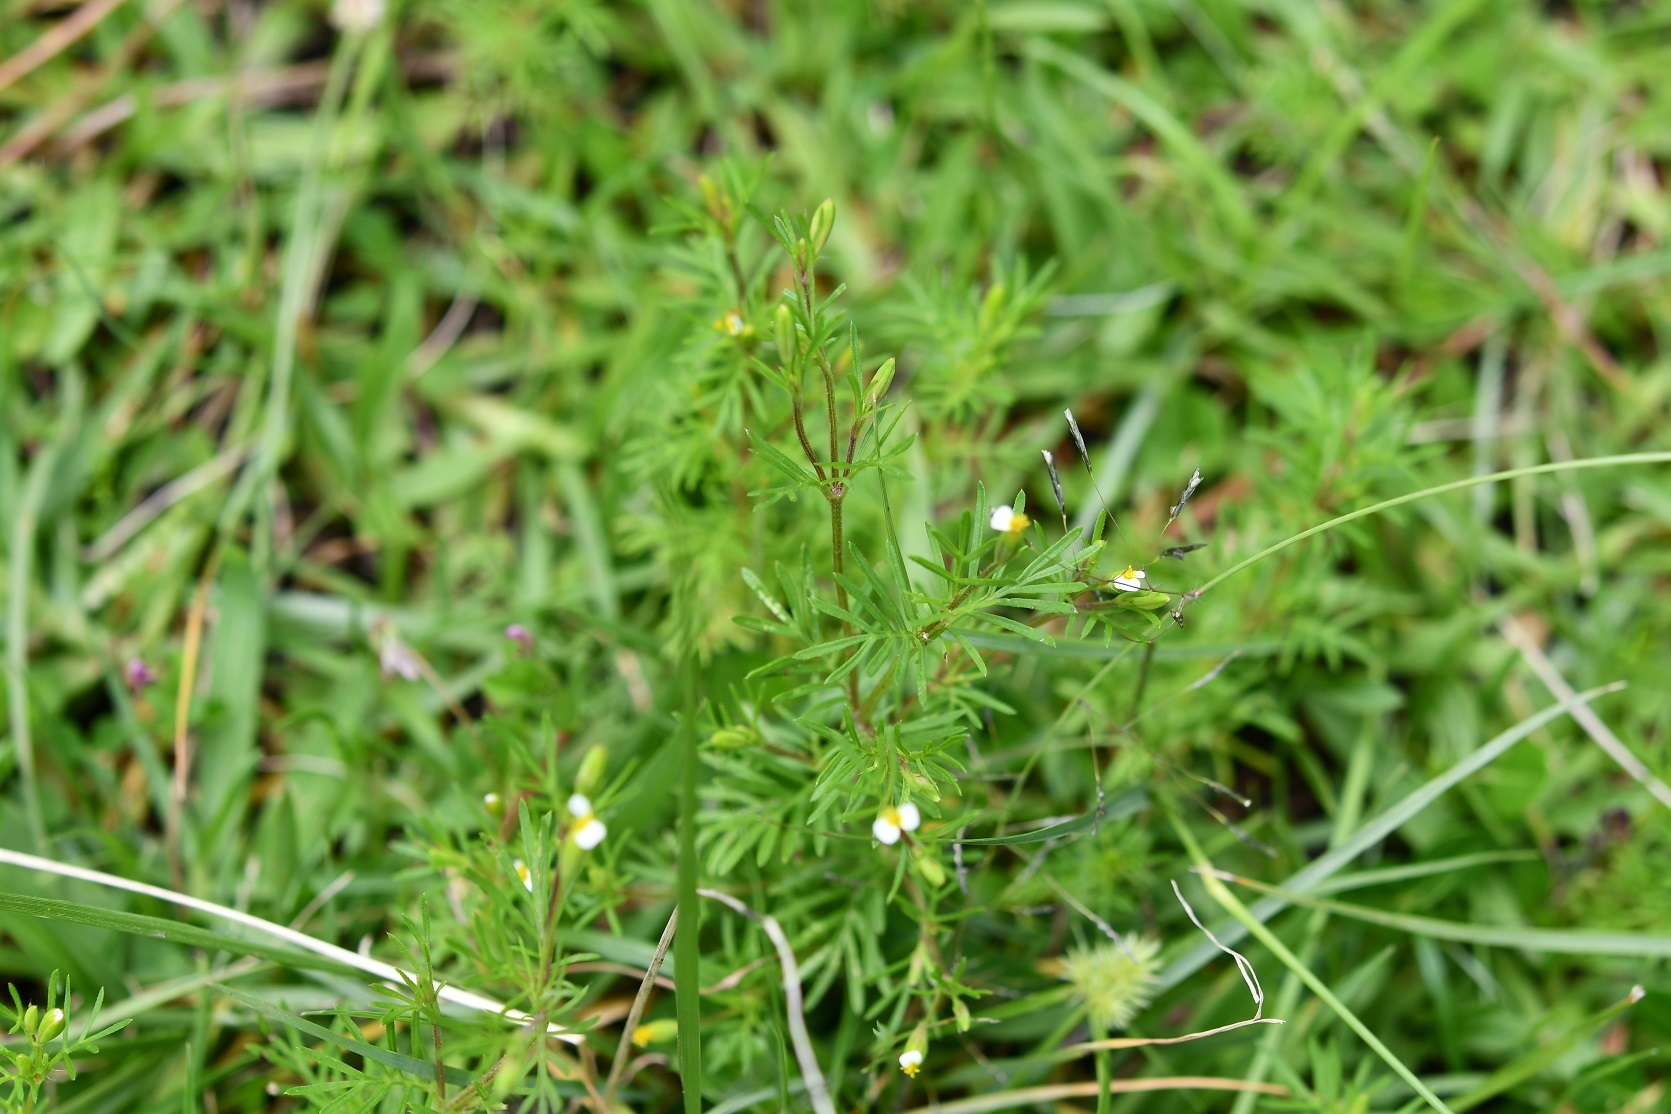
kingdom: Plantae
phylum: Tracheophyta
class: Magnoliopsida
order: Asterales
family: Asteraceae
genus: Tagetes
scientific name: Tagetes filifolia
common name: Lesser marigold
